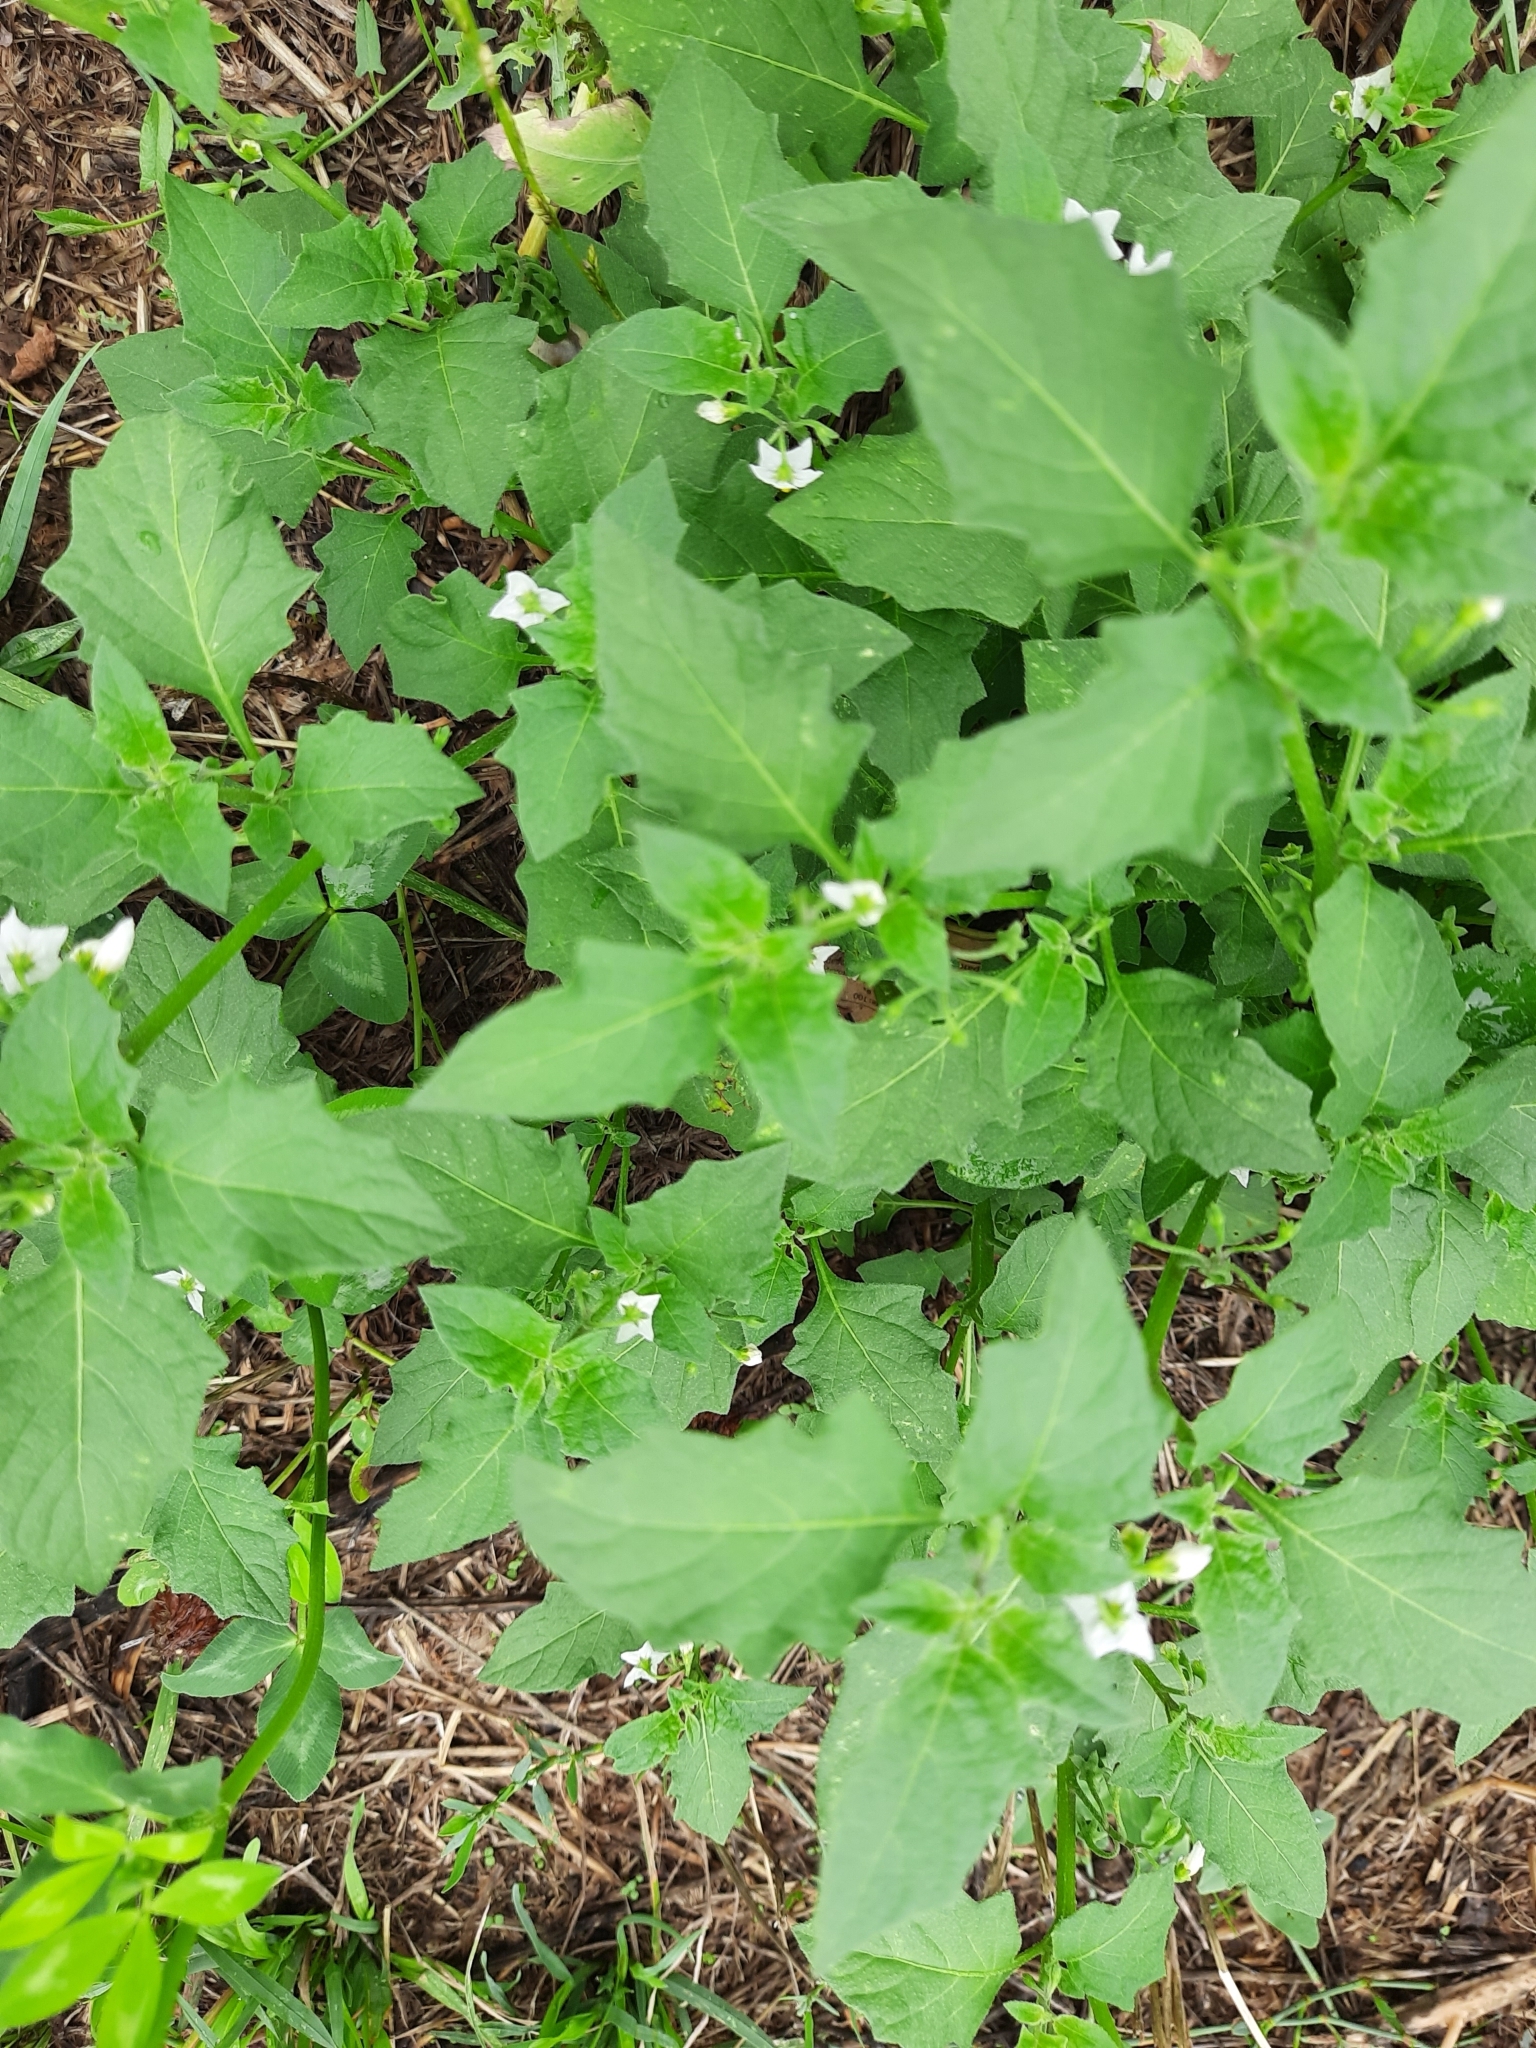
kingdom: Plantae
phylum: Tracheophyta
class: Magnoliopsida
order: Solanales
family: Solanaceae
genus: Solanum
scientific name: Solanum nigrum
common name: Black nightshade
